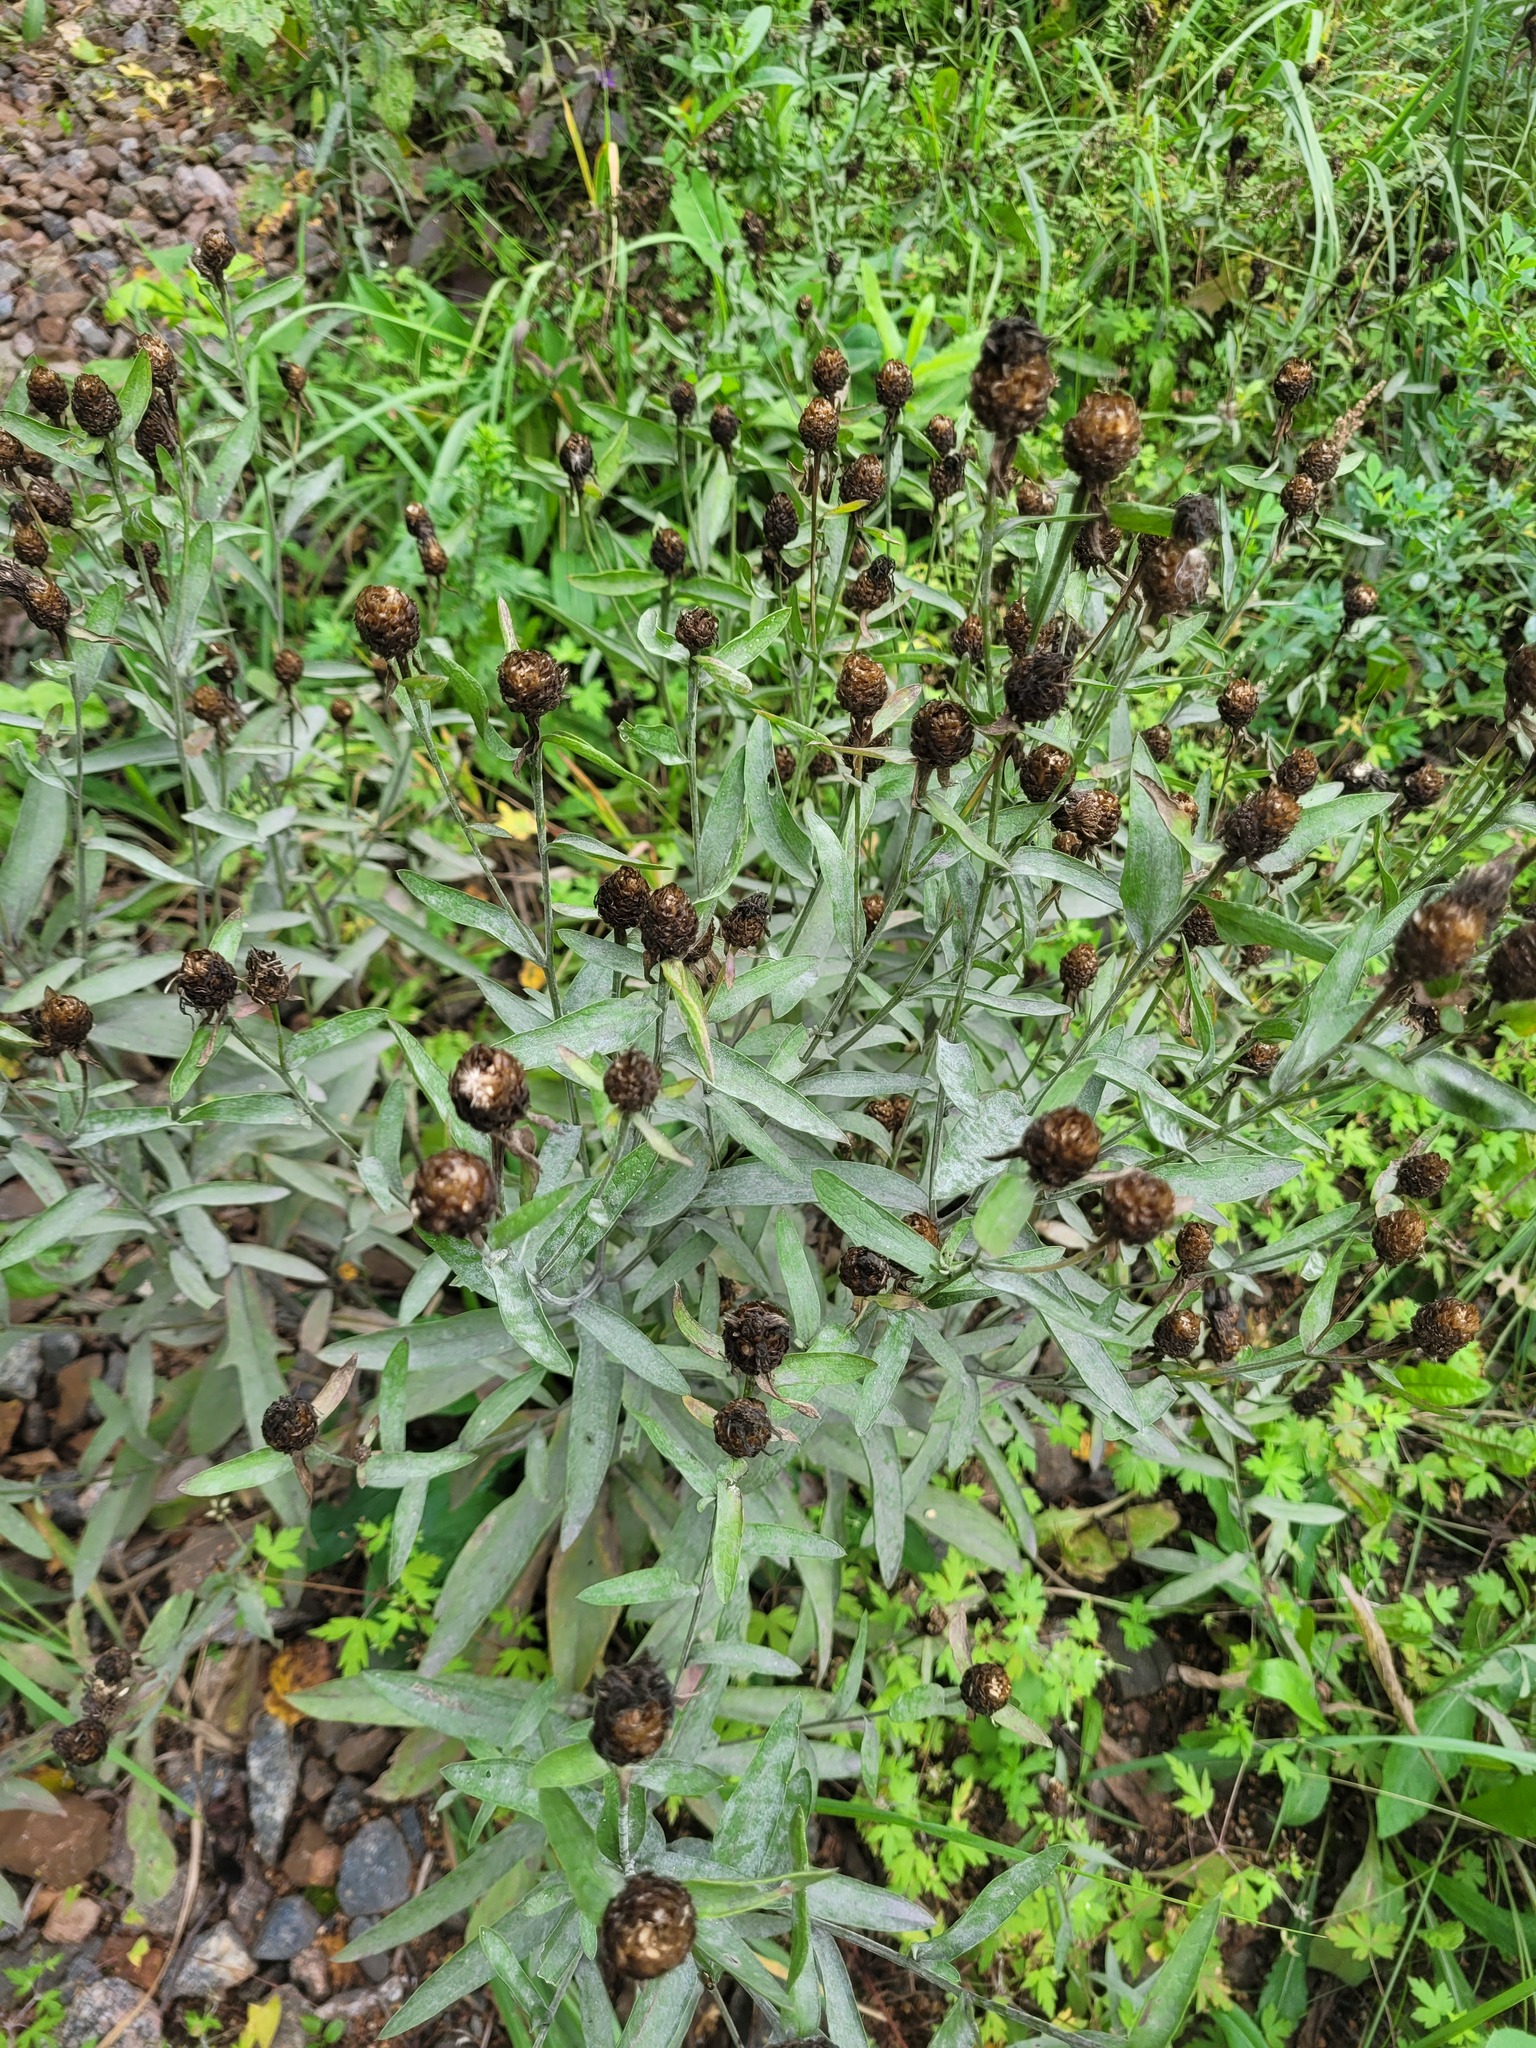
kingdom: Plantae
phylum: Tracheophyta
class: Magnoliopsida
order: Asterales
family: Asteraceae
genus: Centaurea
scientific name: Centaurea jacea
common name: Brown knapweed
